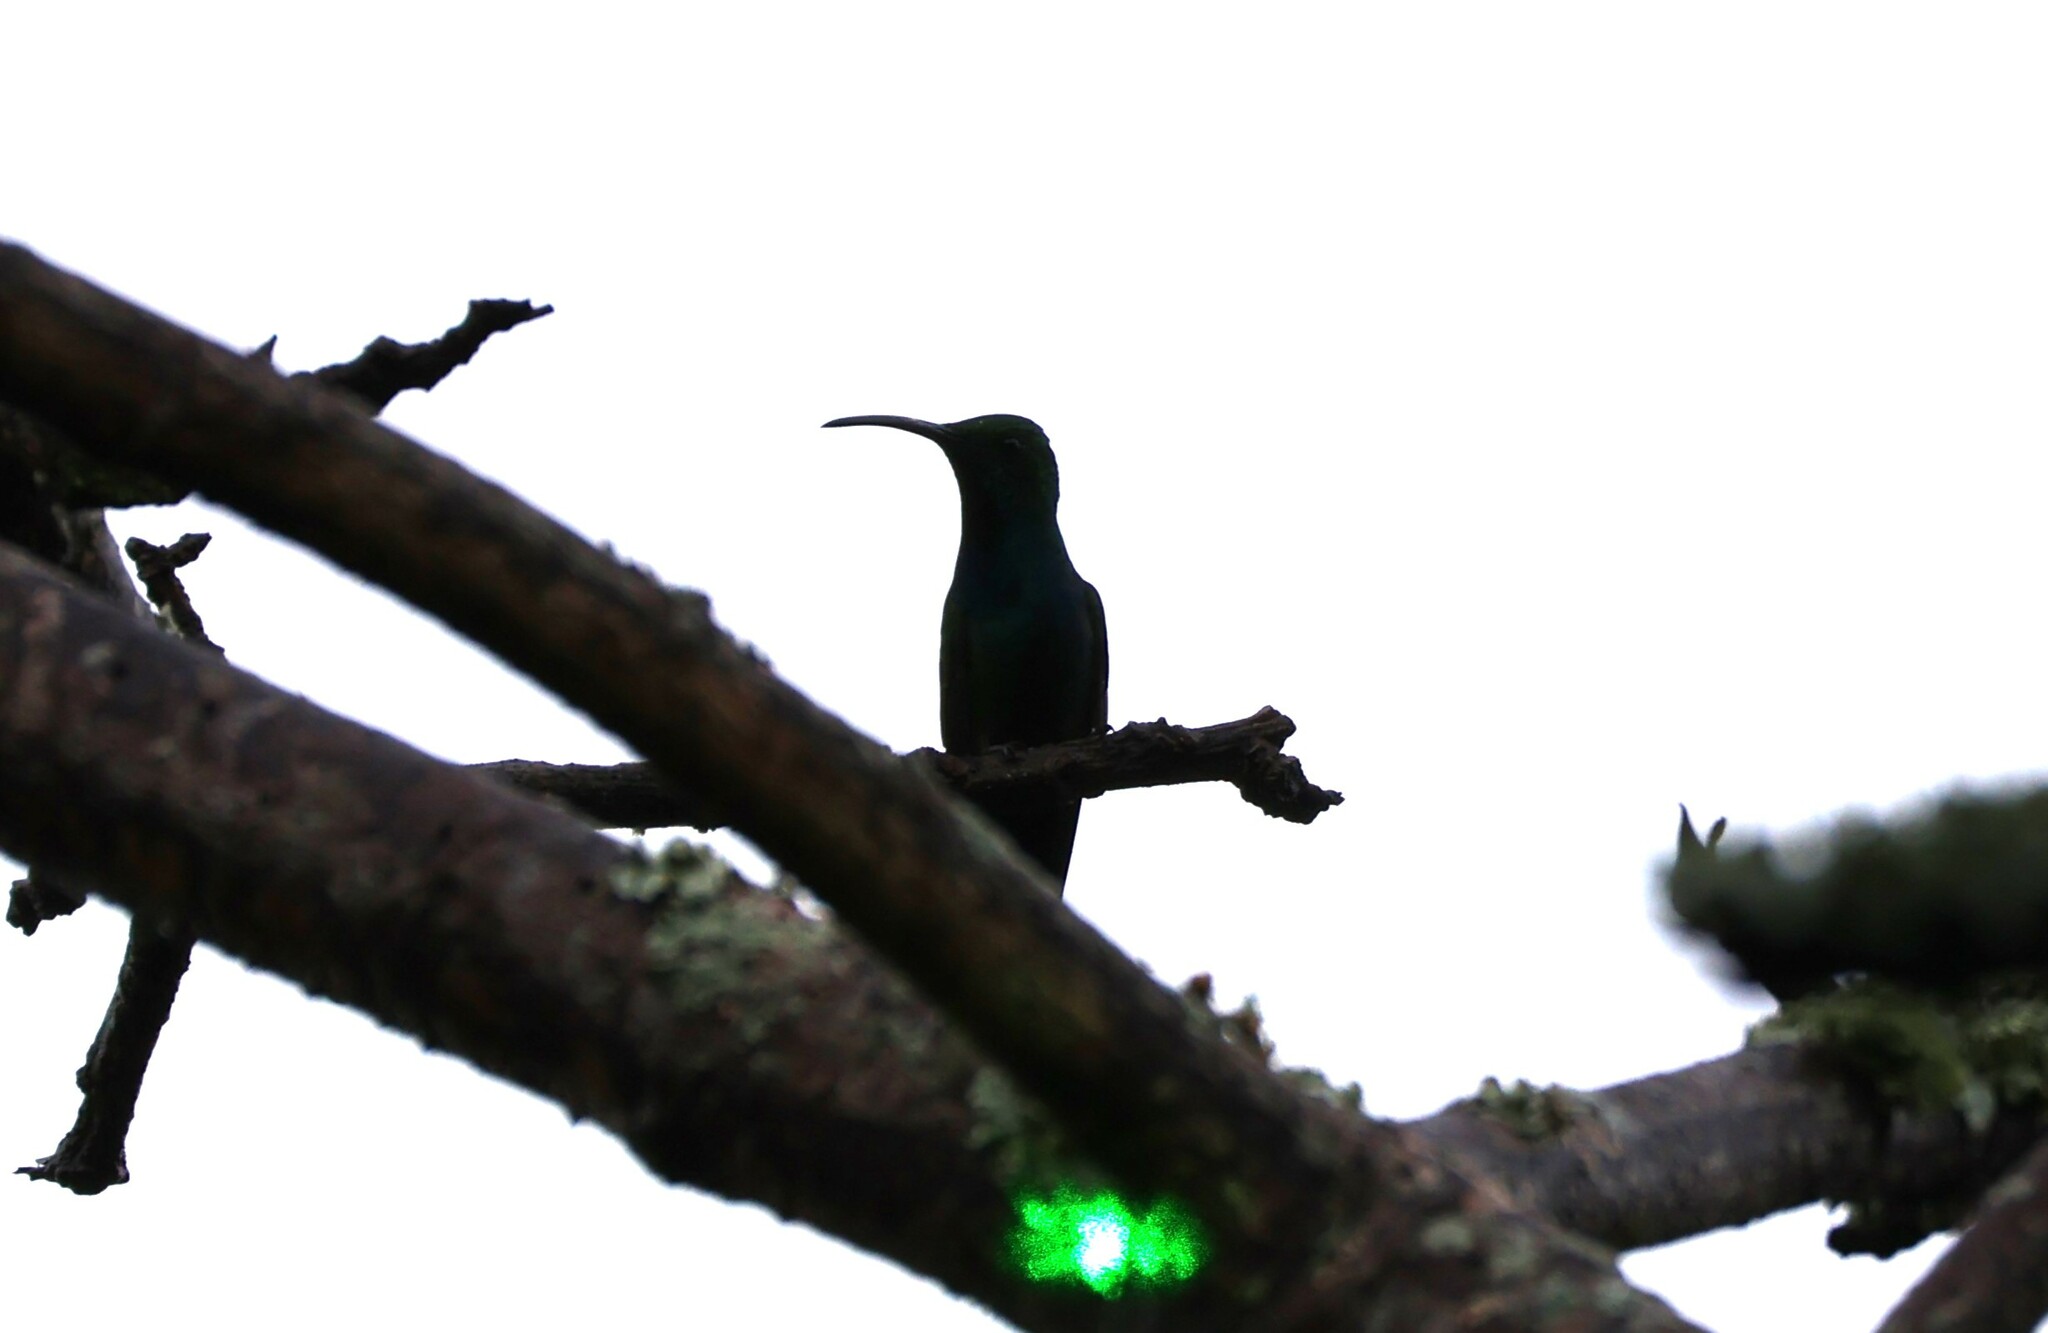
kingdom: Animalia
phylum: Chordata
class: Aves
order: Apodiformes
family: Trochilidae
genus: Anthracothorax
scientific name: Anthracothorax prevostii
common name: Green-breasted mango
